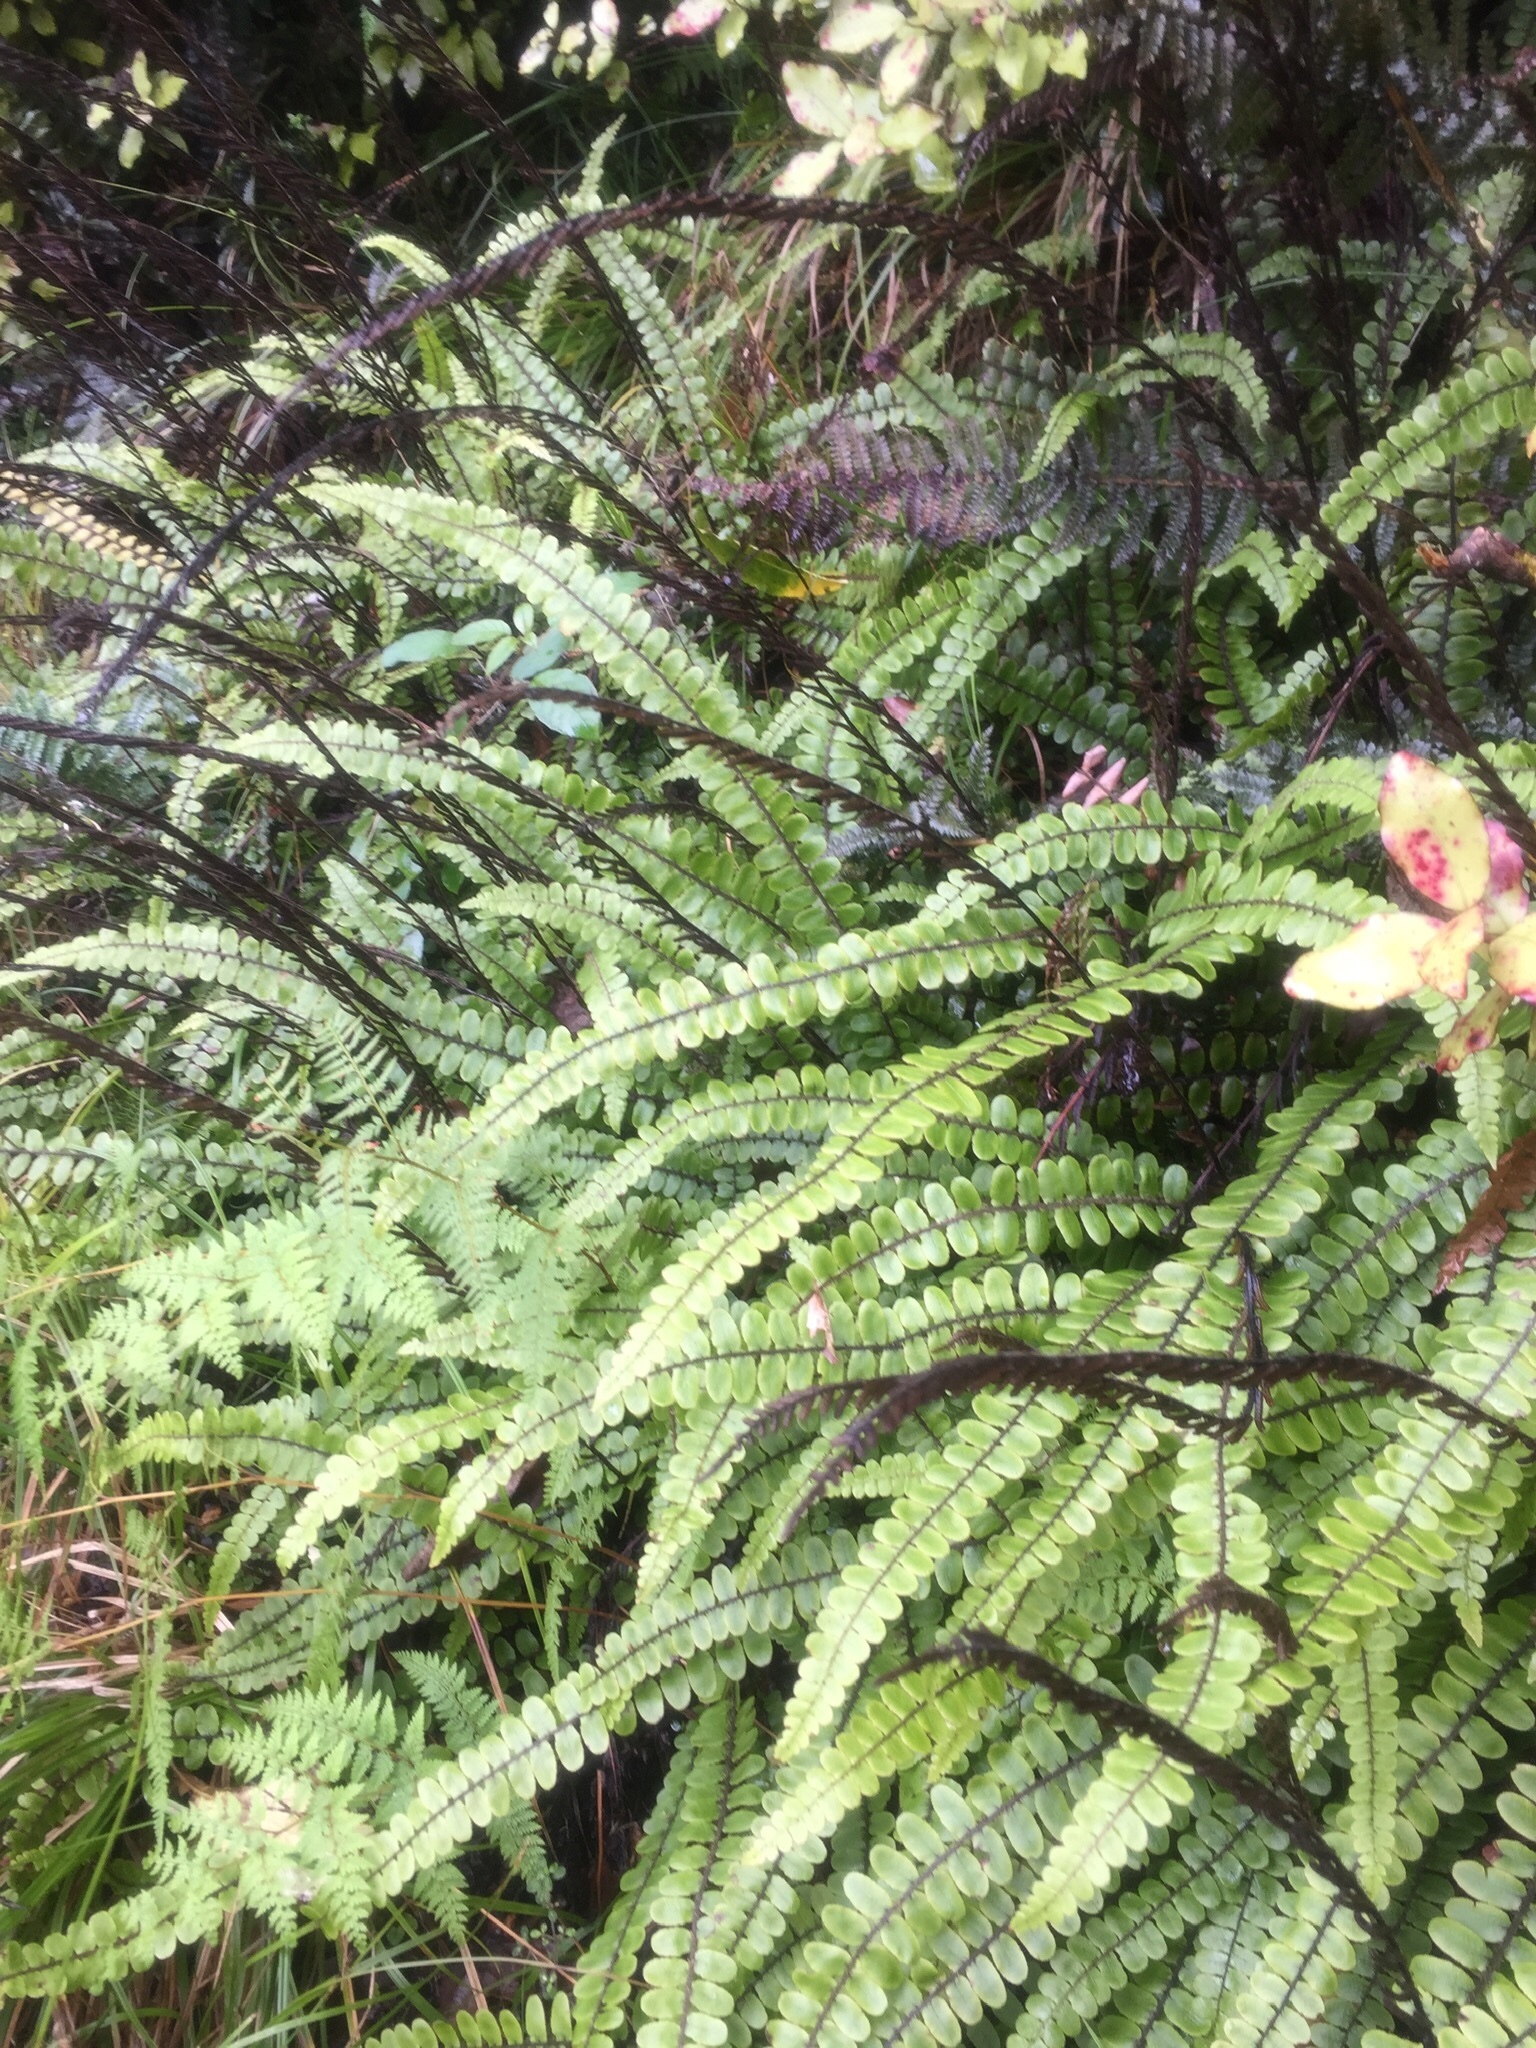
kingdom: Plantae
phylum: Tracheophyta
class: Polypodiopsida
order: Polypodiales
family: Blechnaceae
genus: Cranfillia
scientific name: Cranfillia fluviatilis
